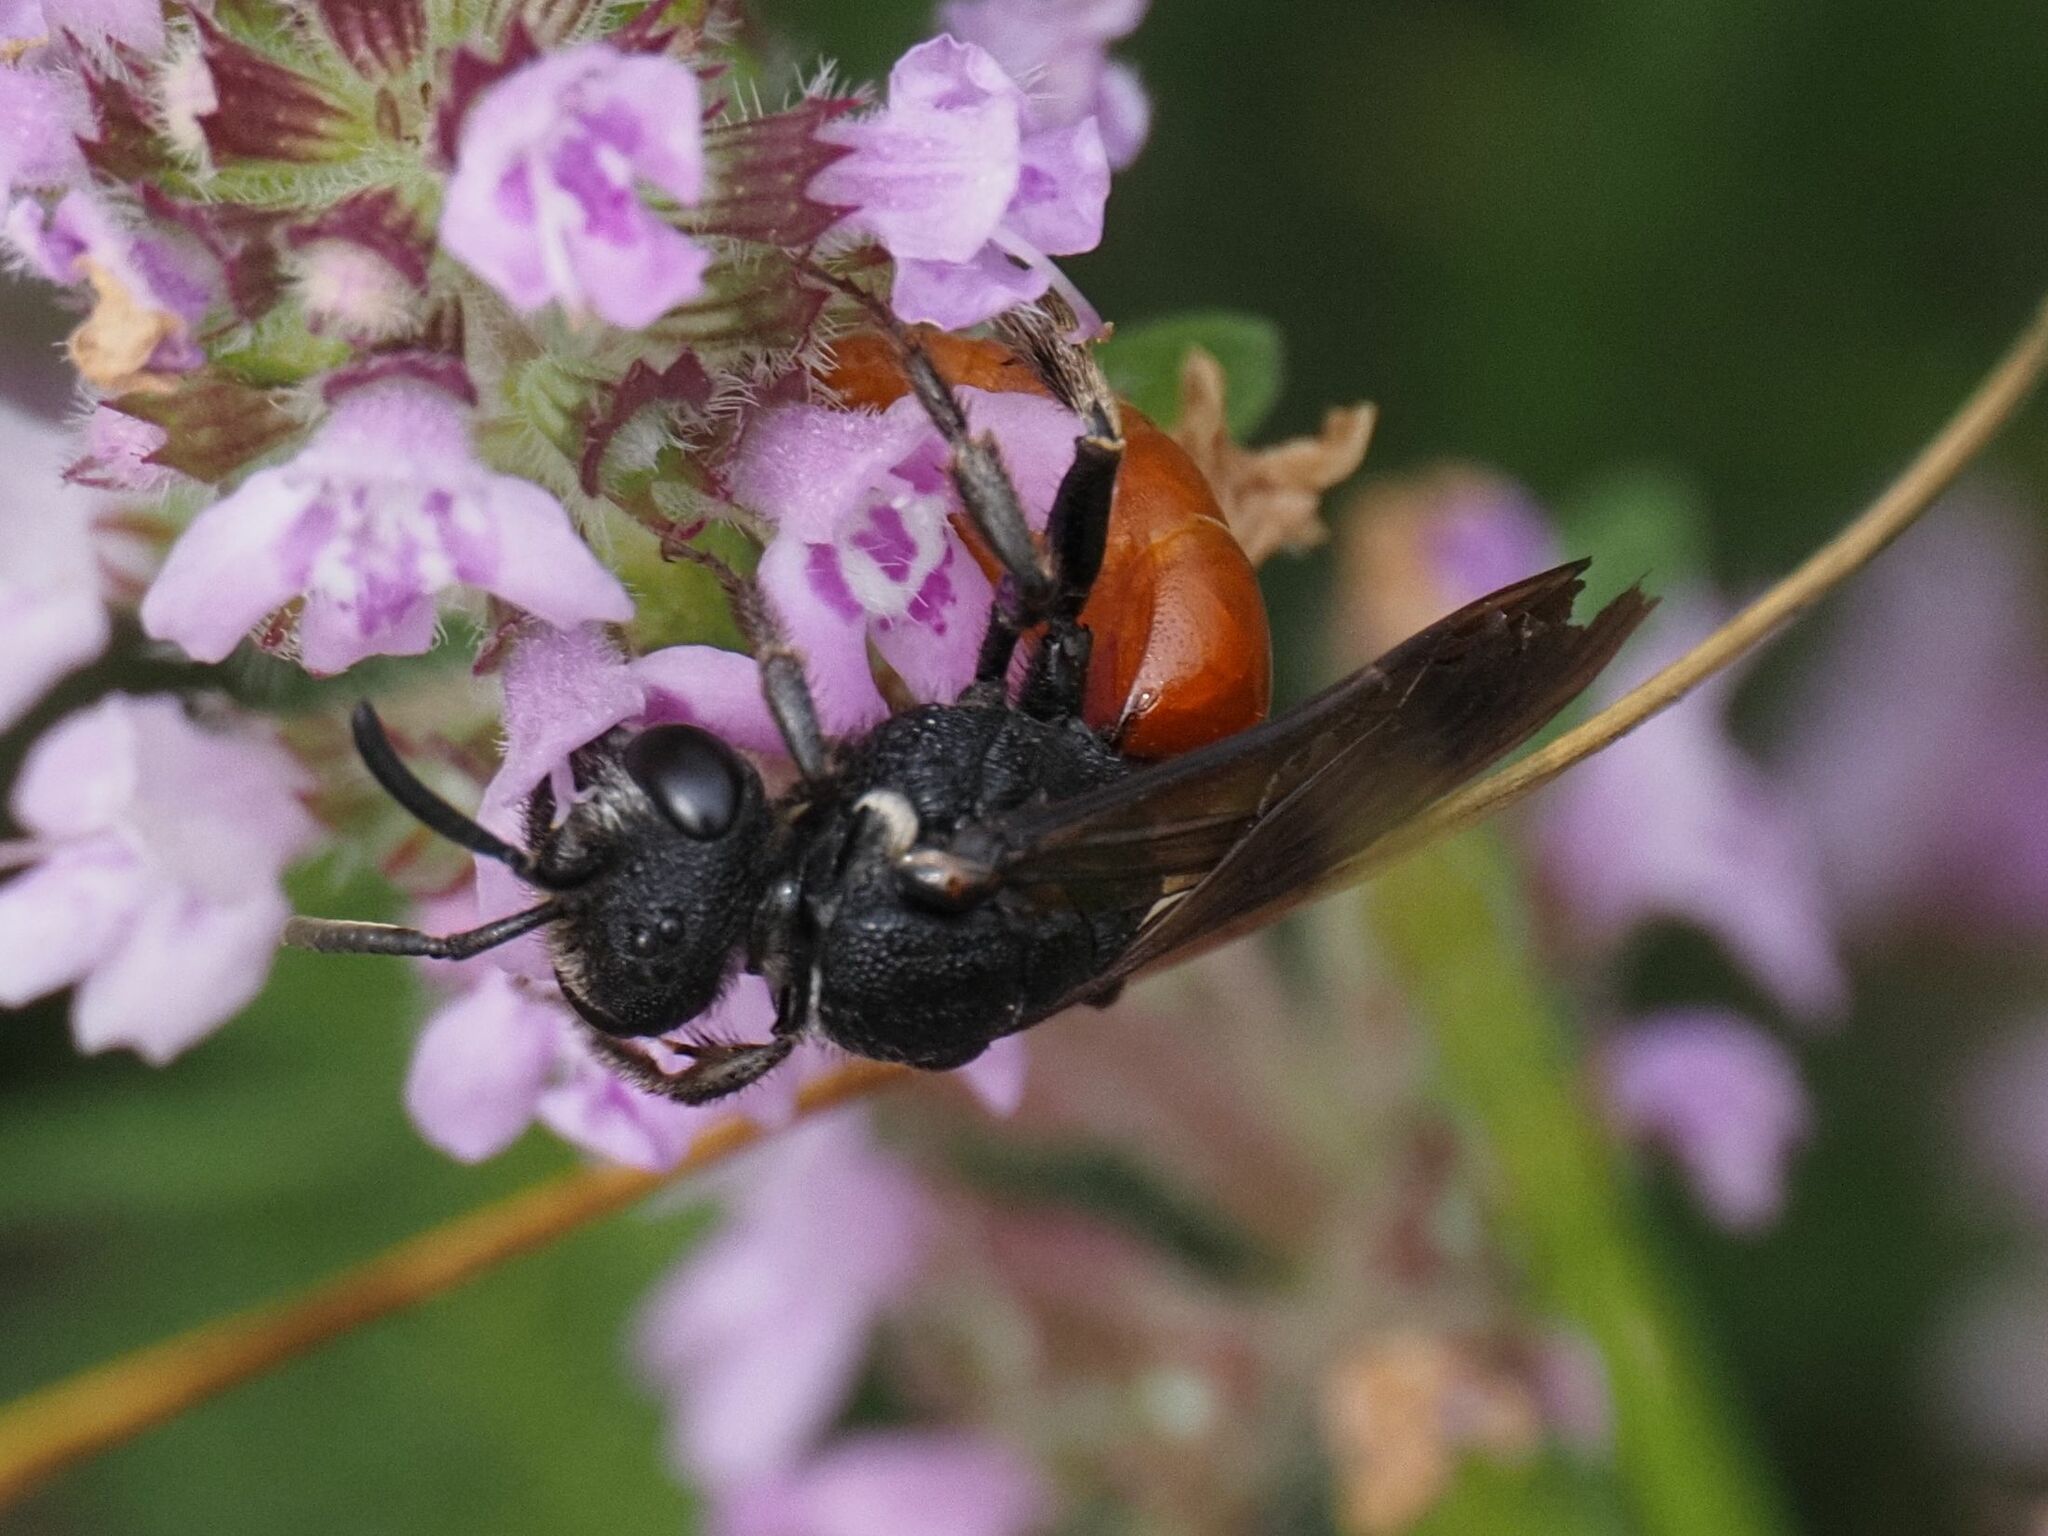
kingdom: Animalia
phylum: Arthropoda
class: Insecta
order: Hymenoptera
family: Halictidae
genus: Sphecodes
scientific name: Sphecodes albilabris
